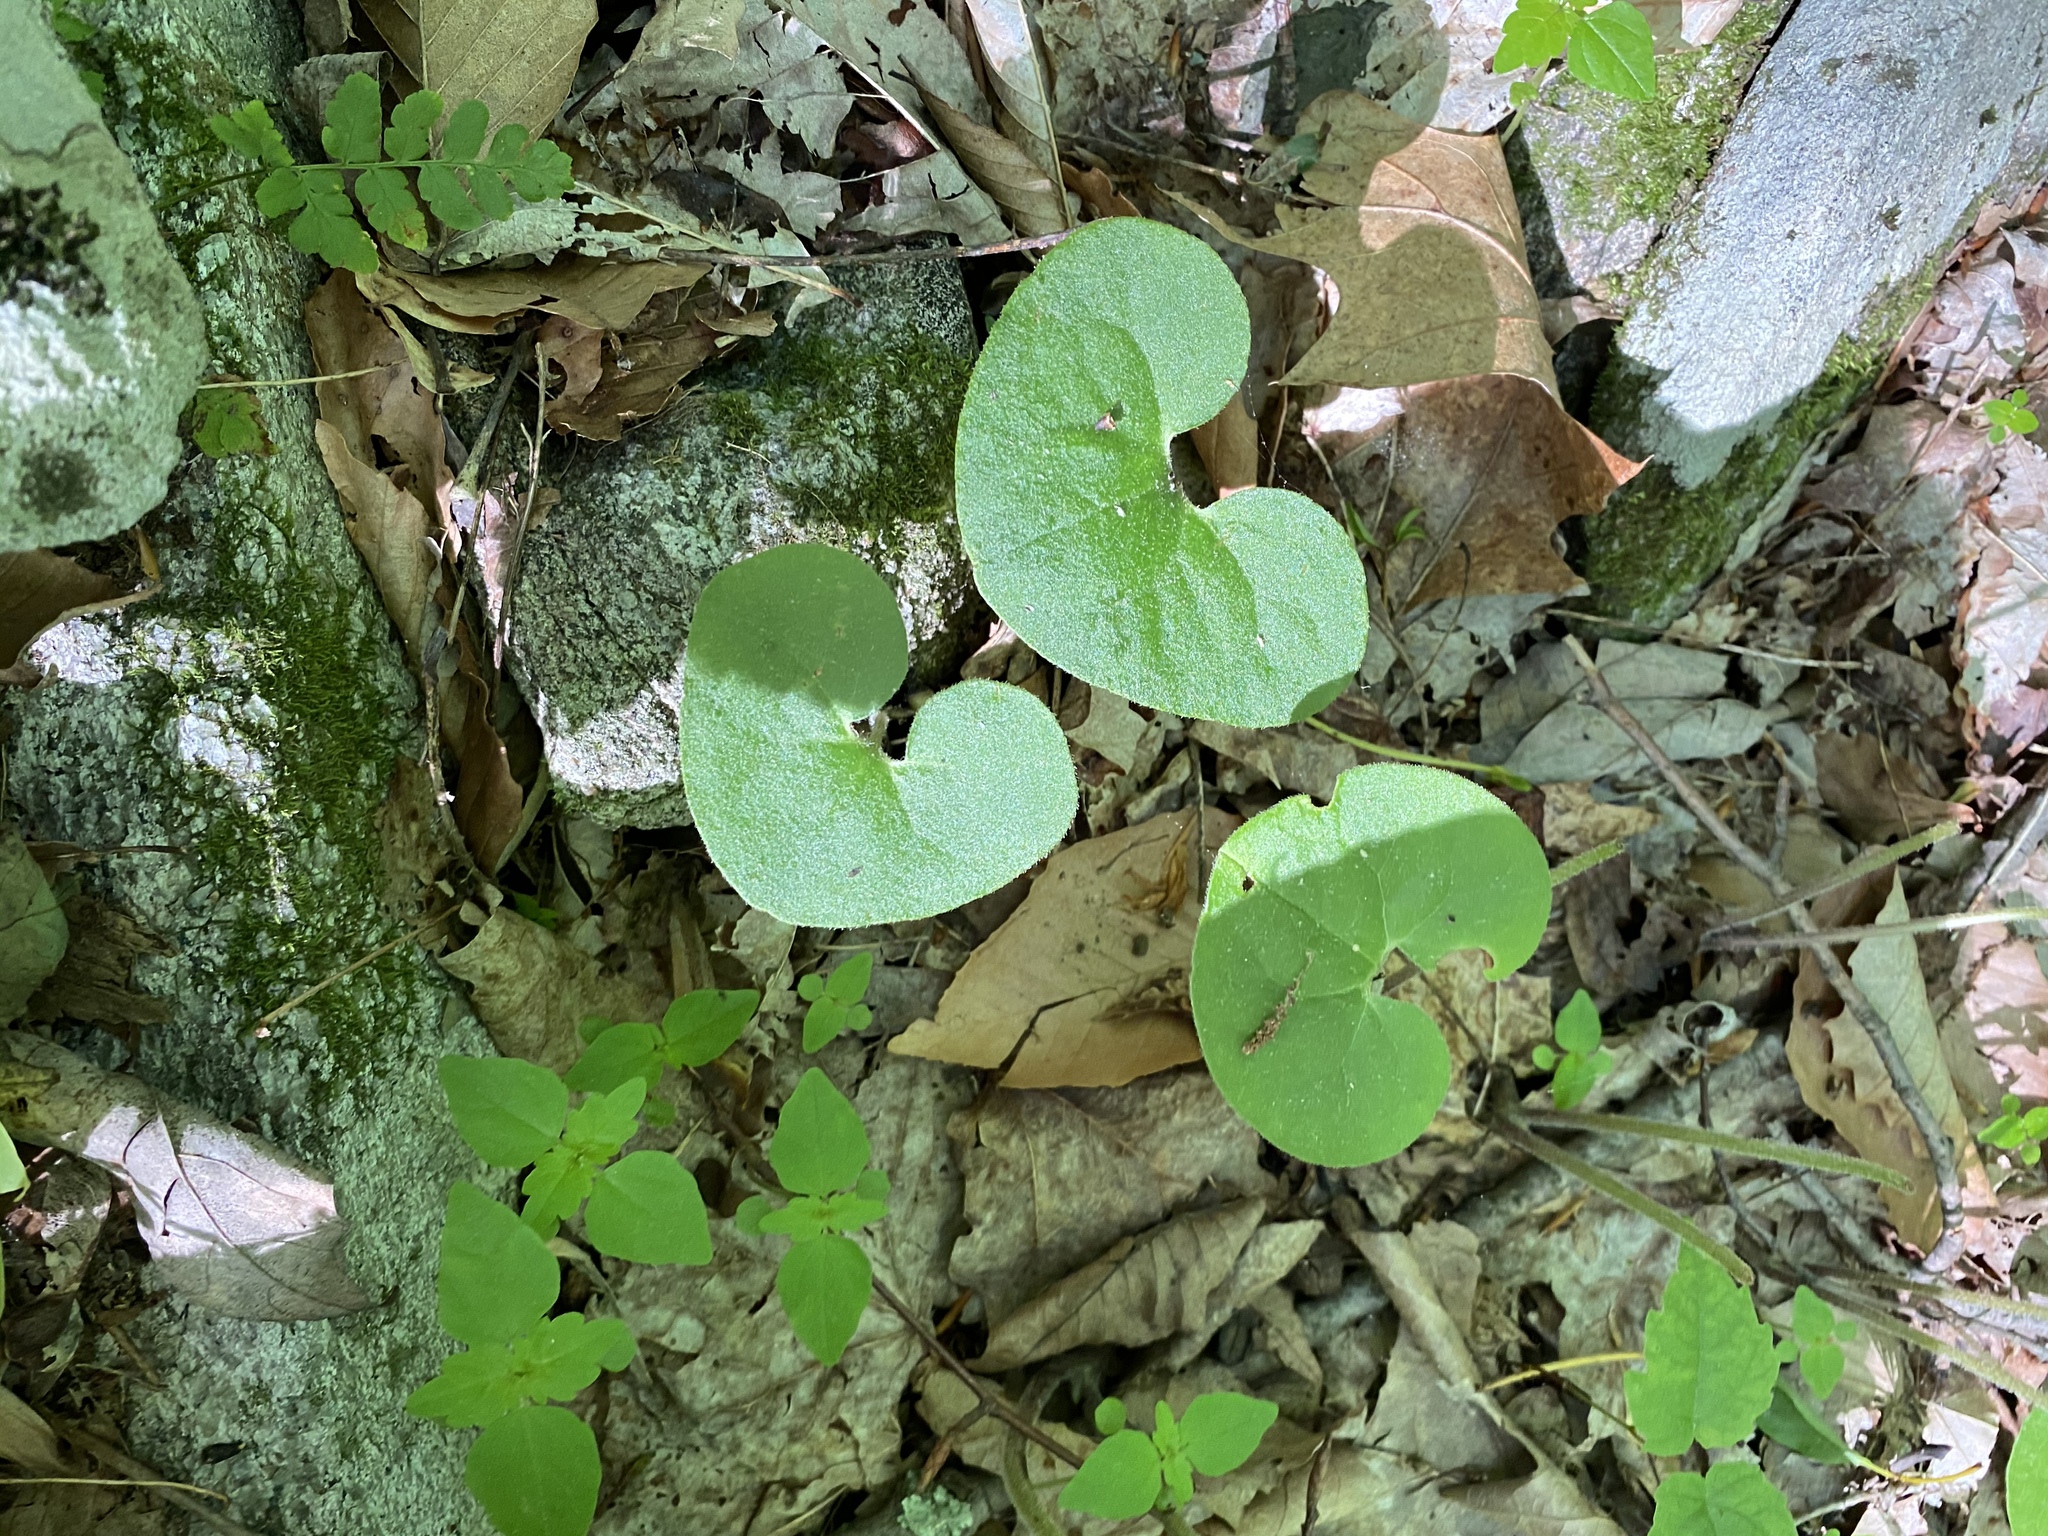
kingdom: Plantae
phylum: Tracheophyta
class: Magnoliopsida
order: Piperales
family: Aristolochiaceae
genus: Asarum
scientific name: Asarum canadense
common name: Wild ginger
